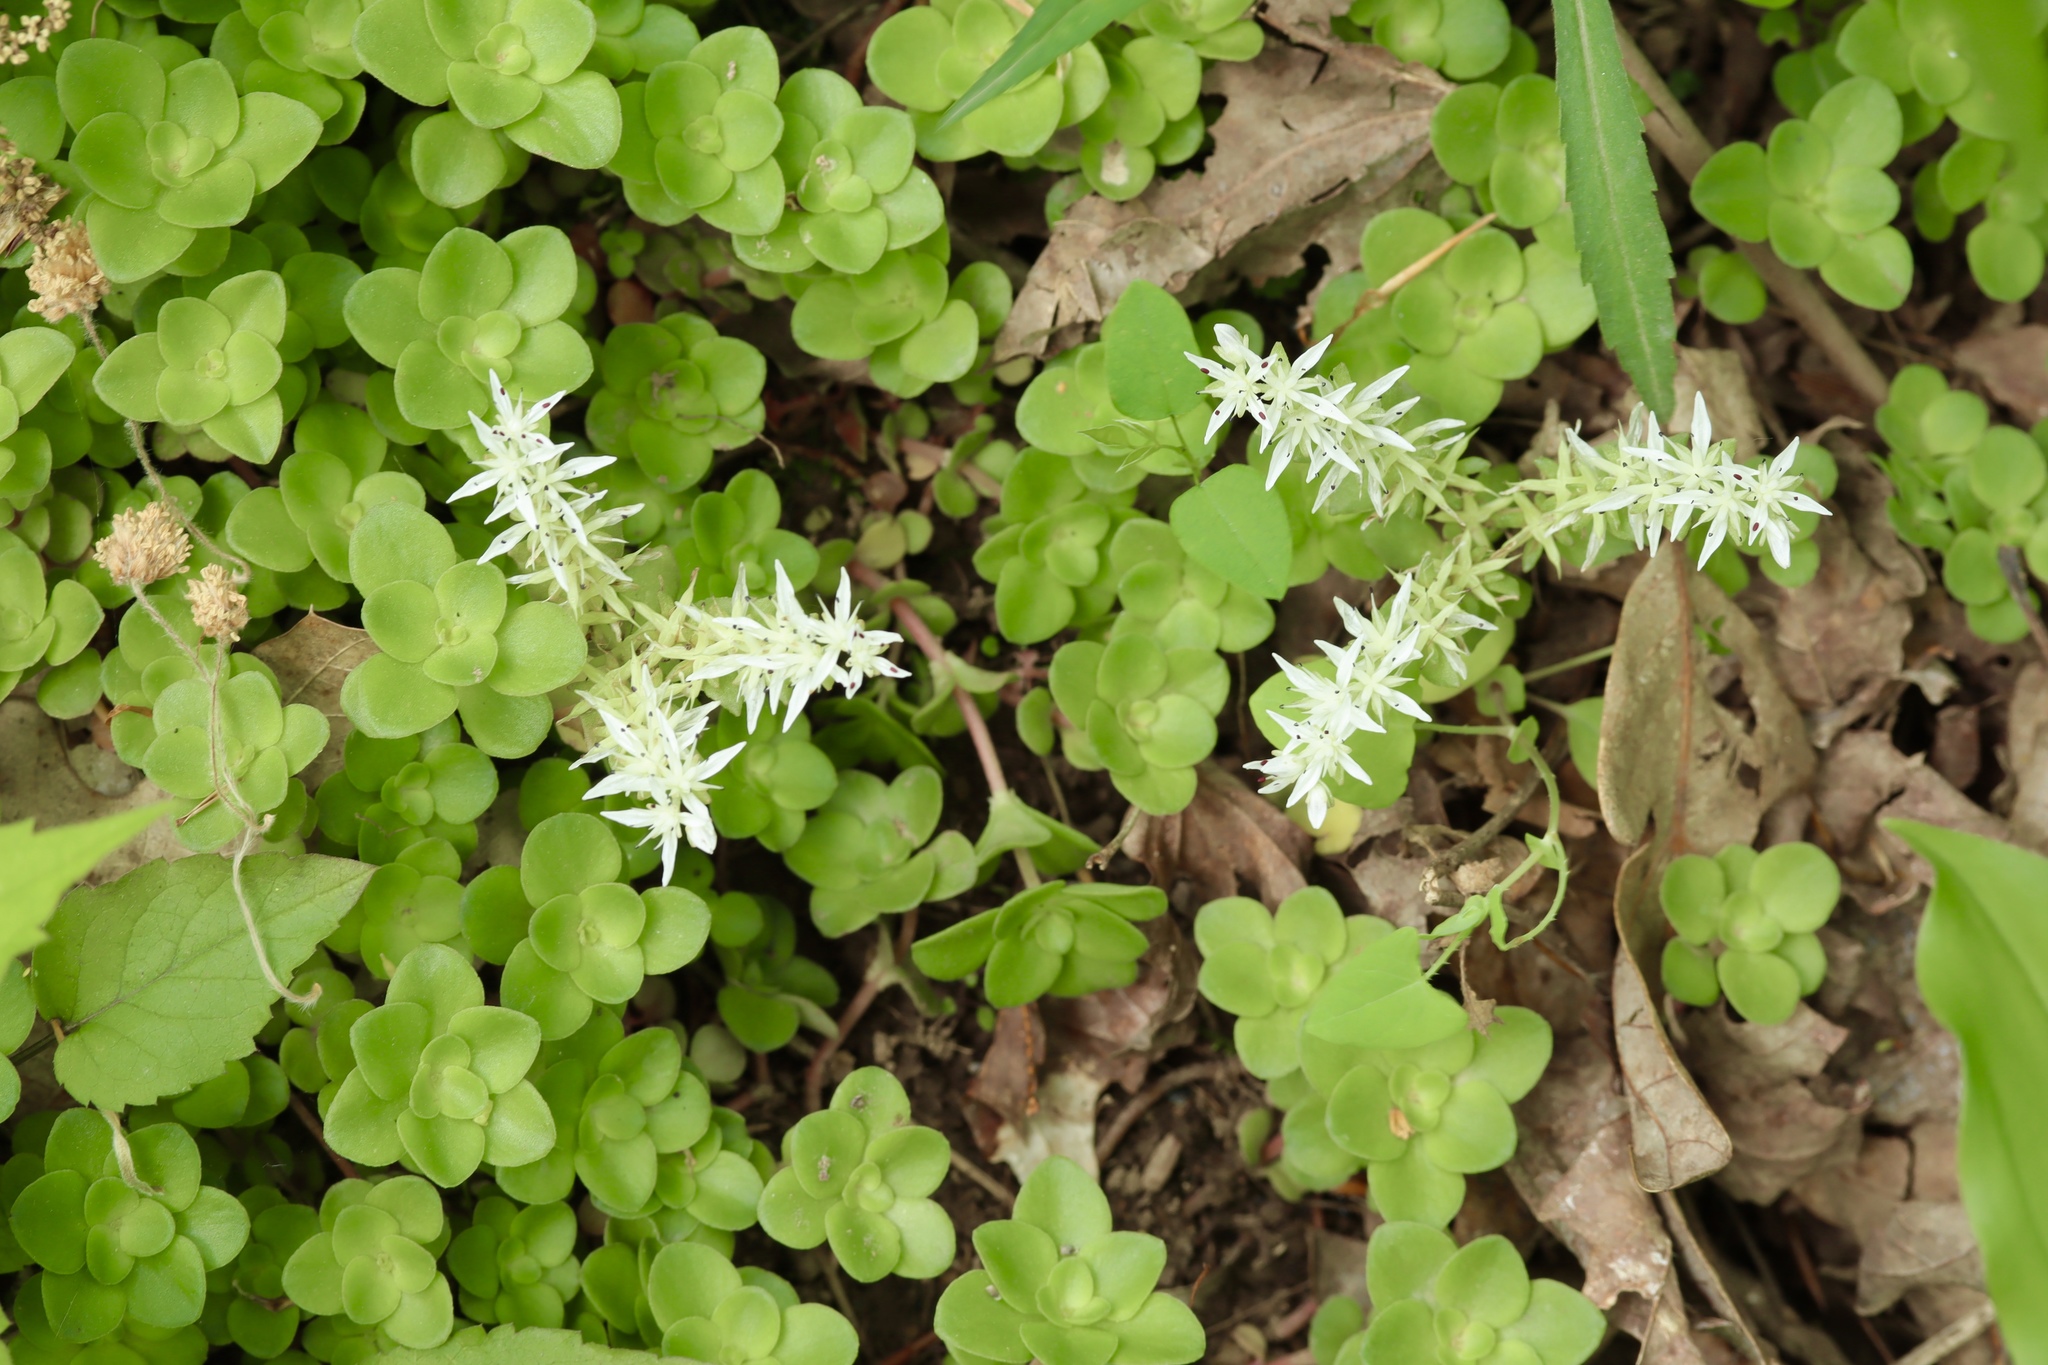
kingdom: Plantae
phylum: Tracheophyta
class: Magnoliopsida
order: Saxifragales
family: Crassulaceae
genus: Sedum
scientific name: Sedum ternatum
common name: Wild stonecrop
